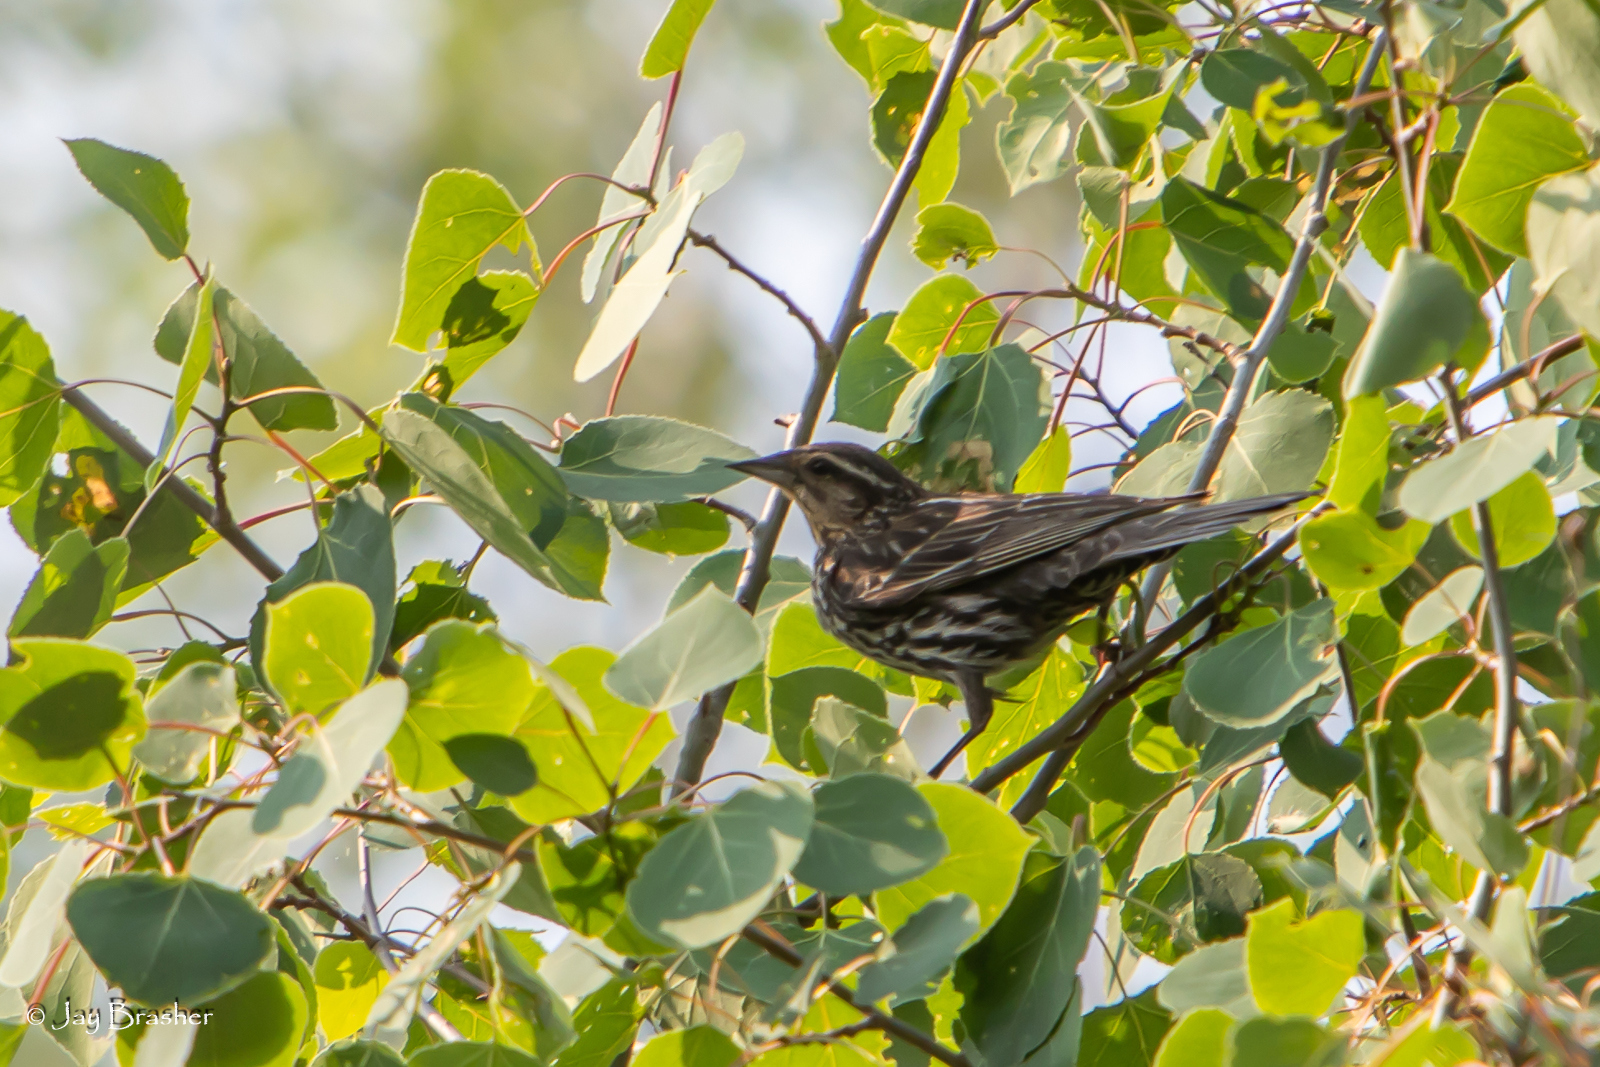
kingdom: Animalia
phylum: Chordata
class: Aves
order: Passeriformes
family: Icteridae
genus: Agelaius
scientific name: Agelaius phoeniceus
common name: Red-winged blackbird
